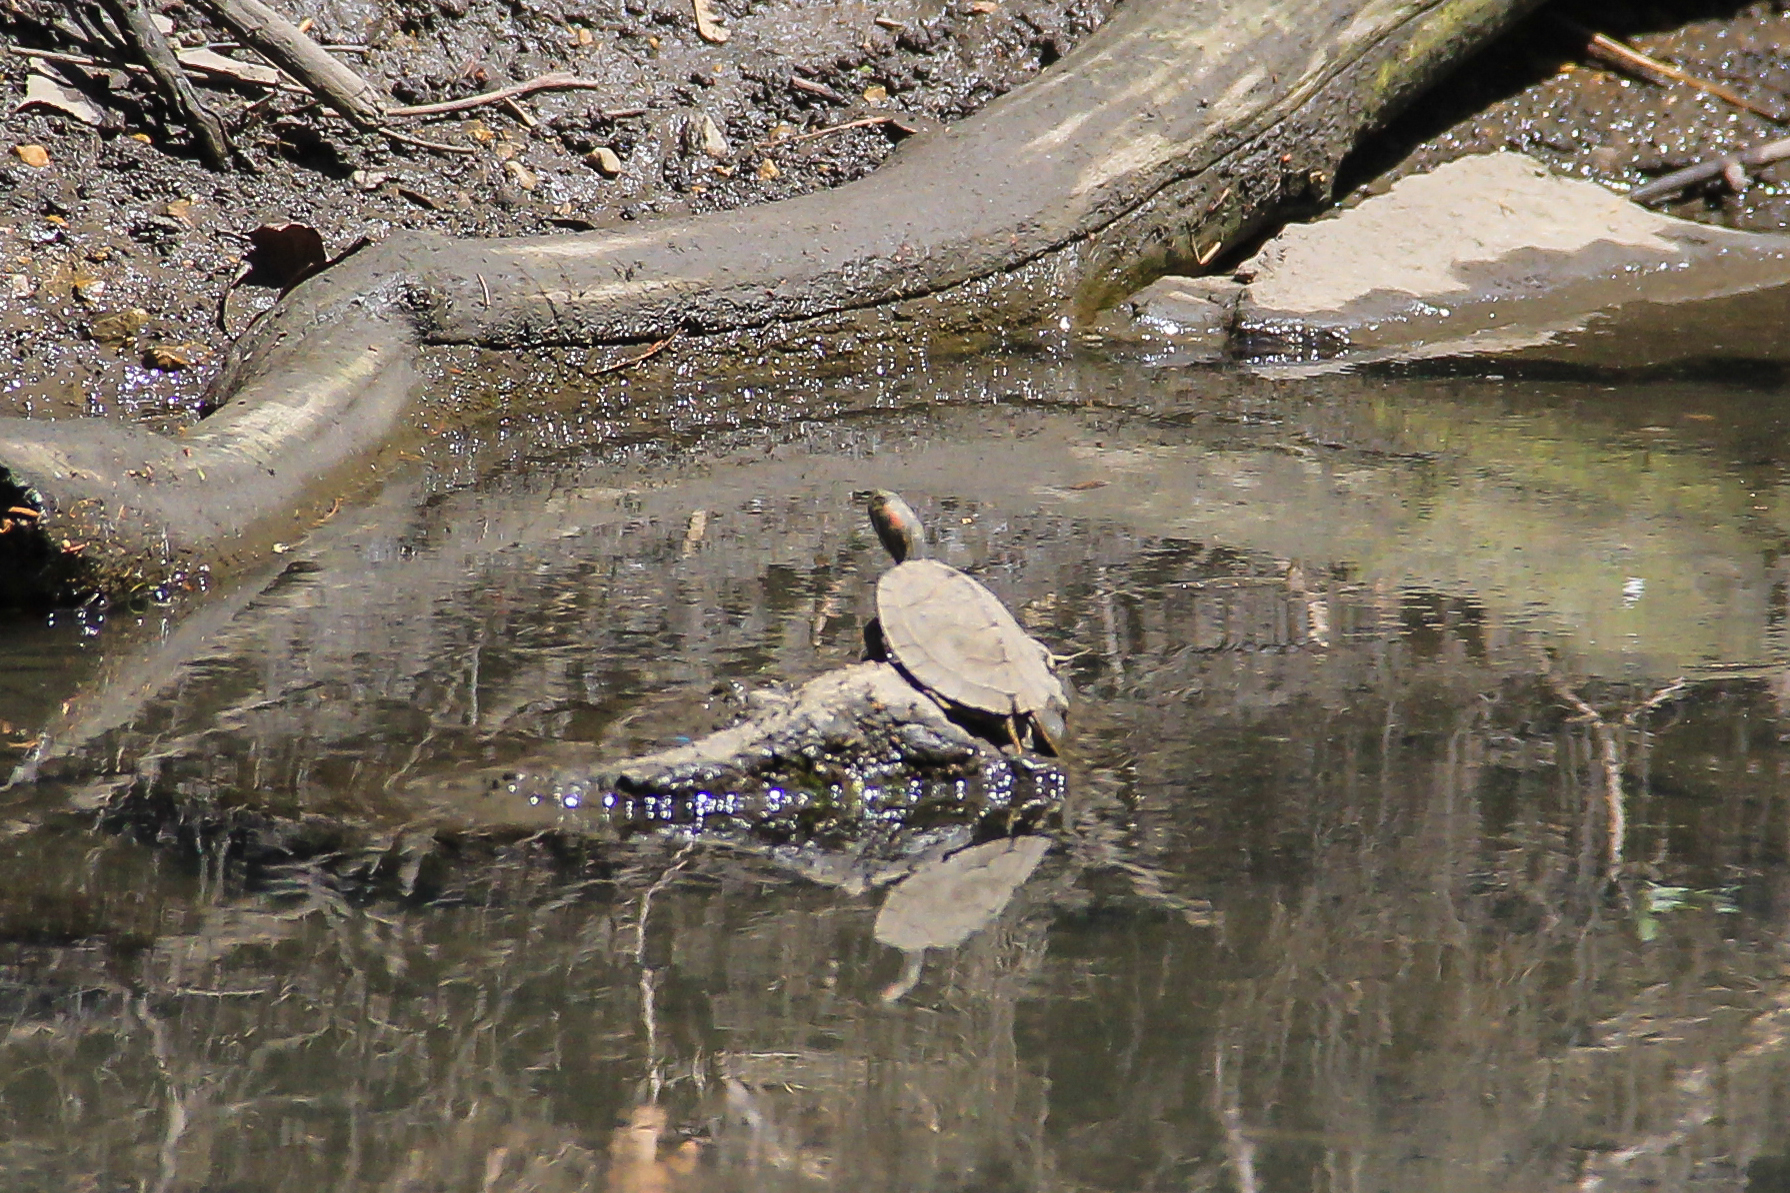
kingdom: Animalia
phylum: Chordata
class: Testudines
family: Emydidae
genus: Trachemys
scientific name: Trachemys scripta
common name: Slider
